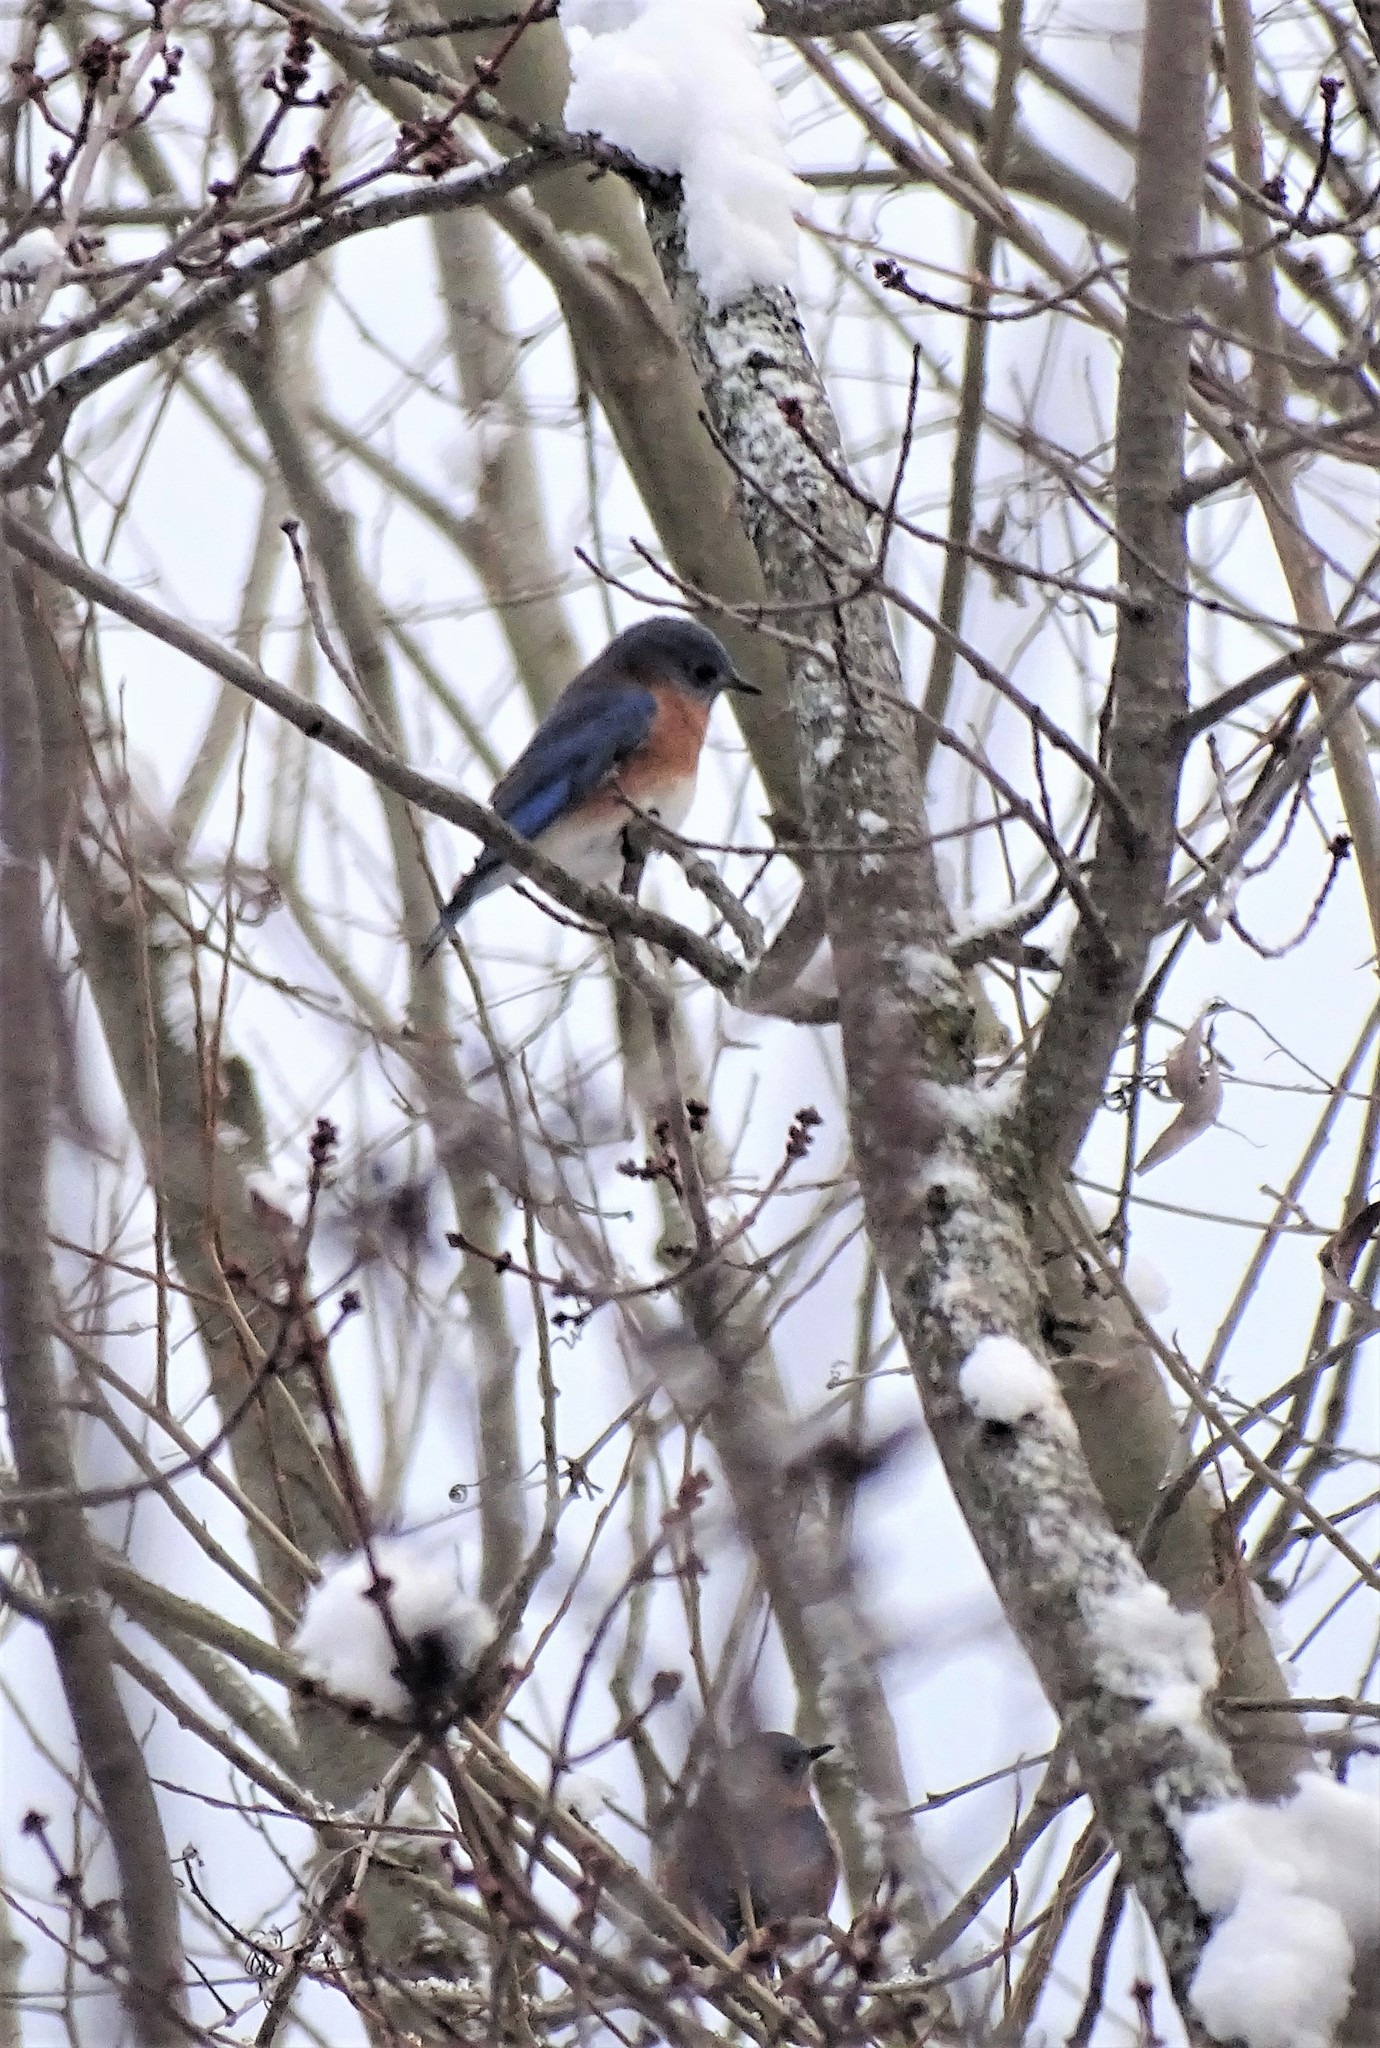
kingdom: Animalia
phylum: Chordata
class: Aves
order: Passeriformes
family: Turdidae
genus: Sialia
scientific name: Sialia sialis
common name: Eastern bluebird
